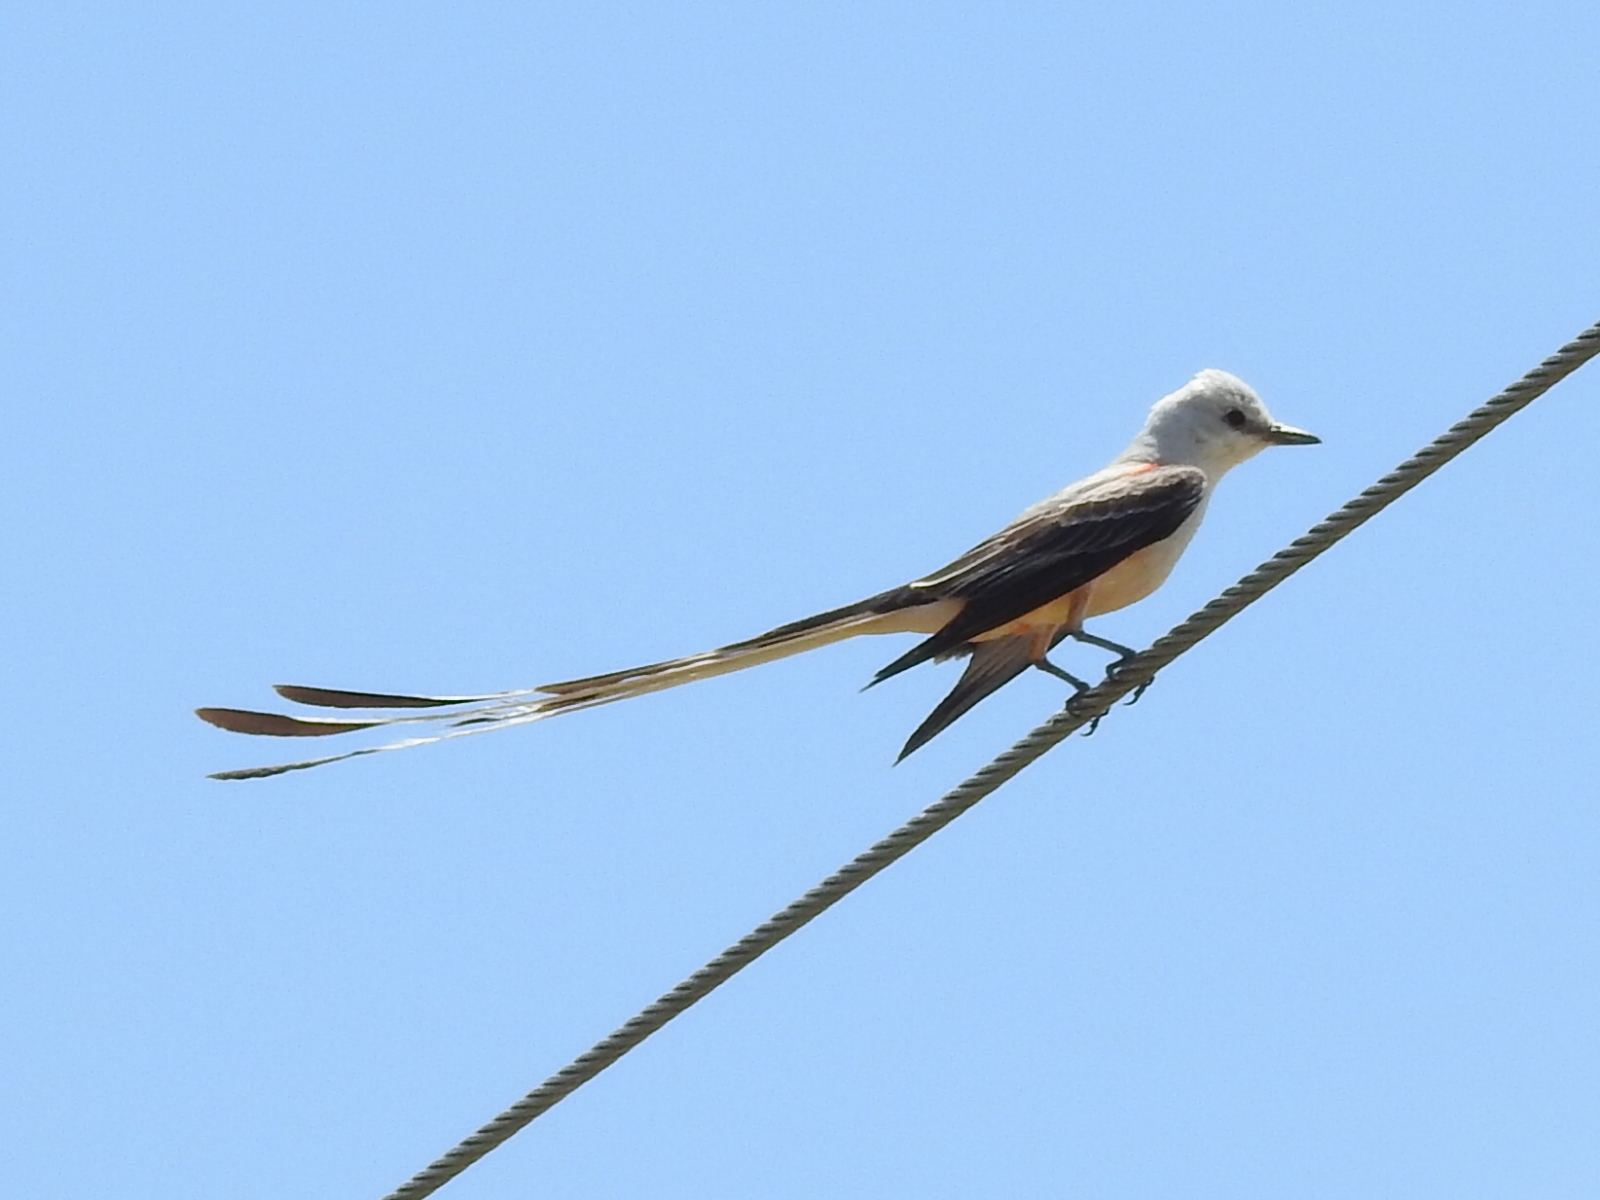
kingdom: Animalia
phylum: Chordata
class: Aves
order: Passeriformes
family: Tyrannidae
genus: Tyrannus
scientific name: Tyrannus forficatus
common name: Scissor-tailed flycatcher
